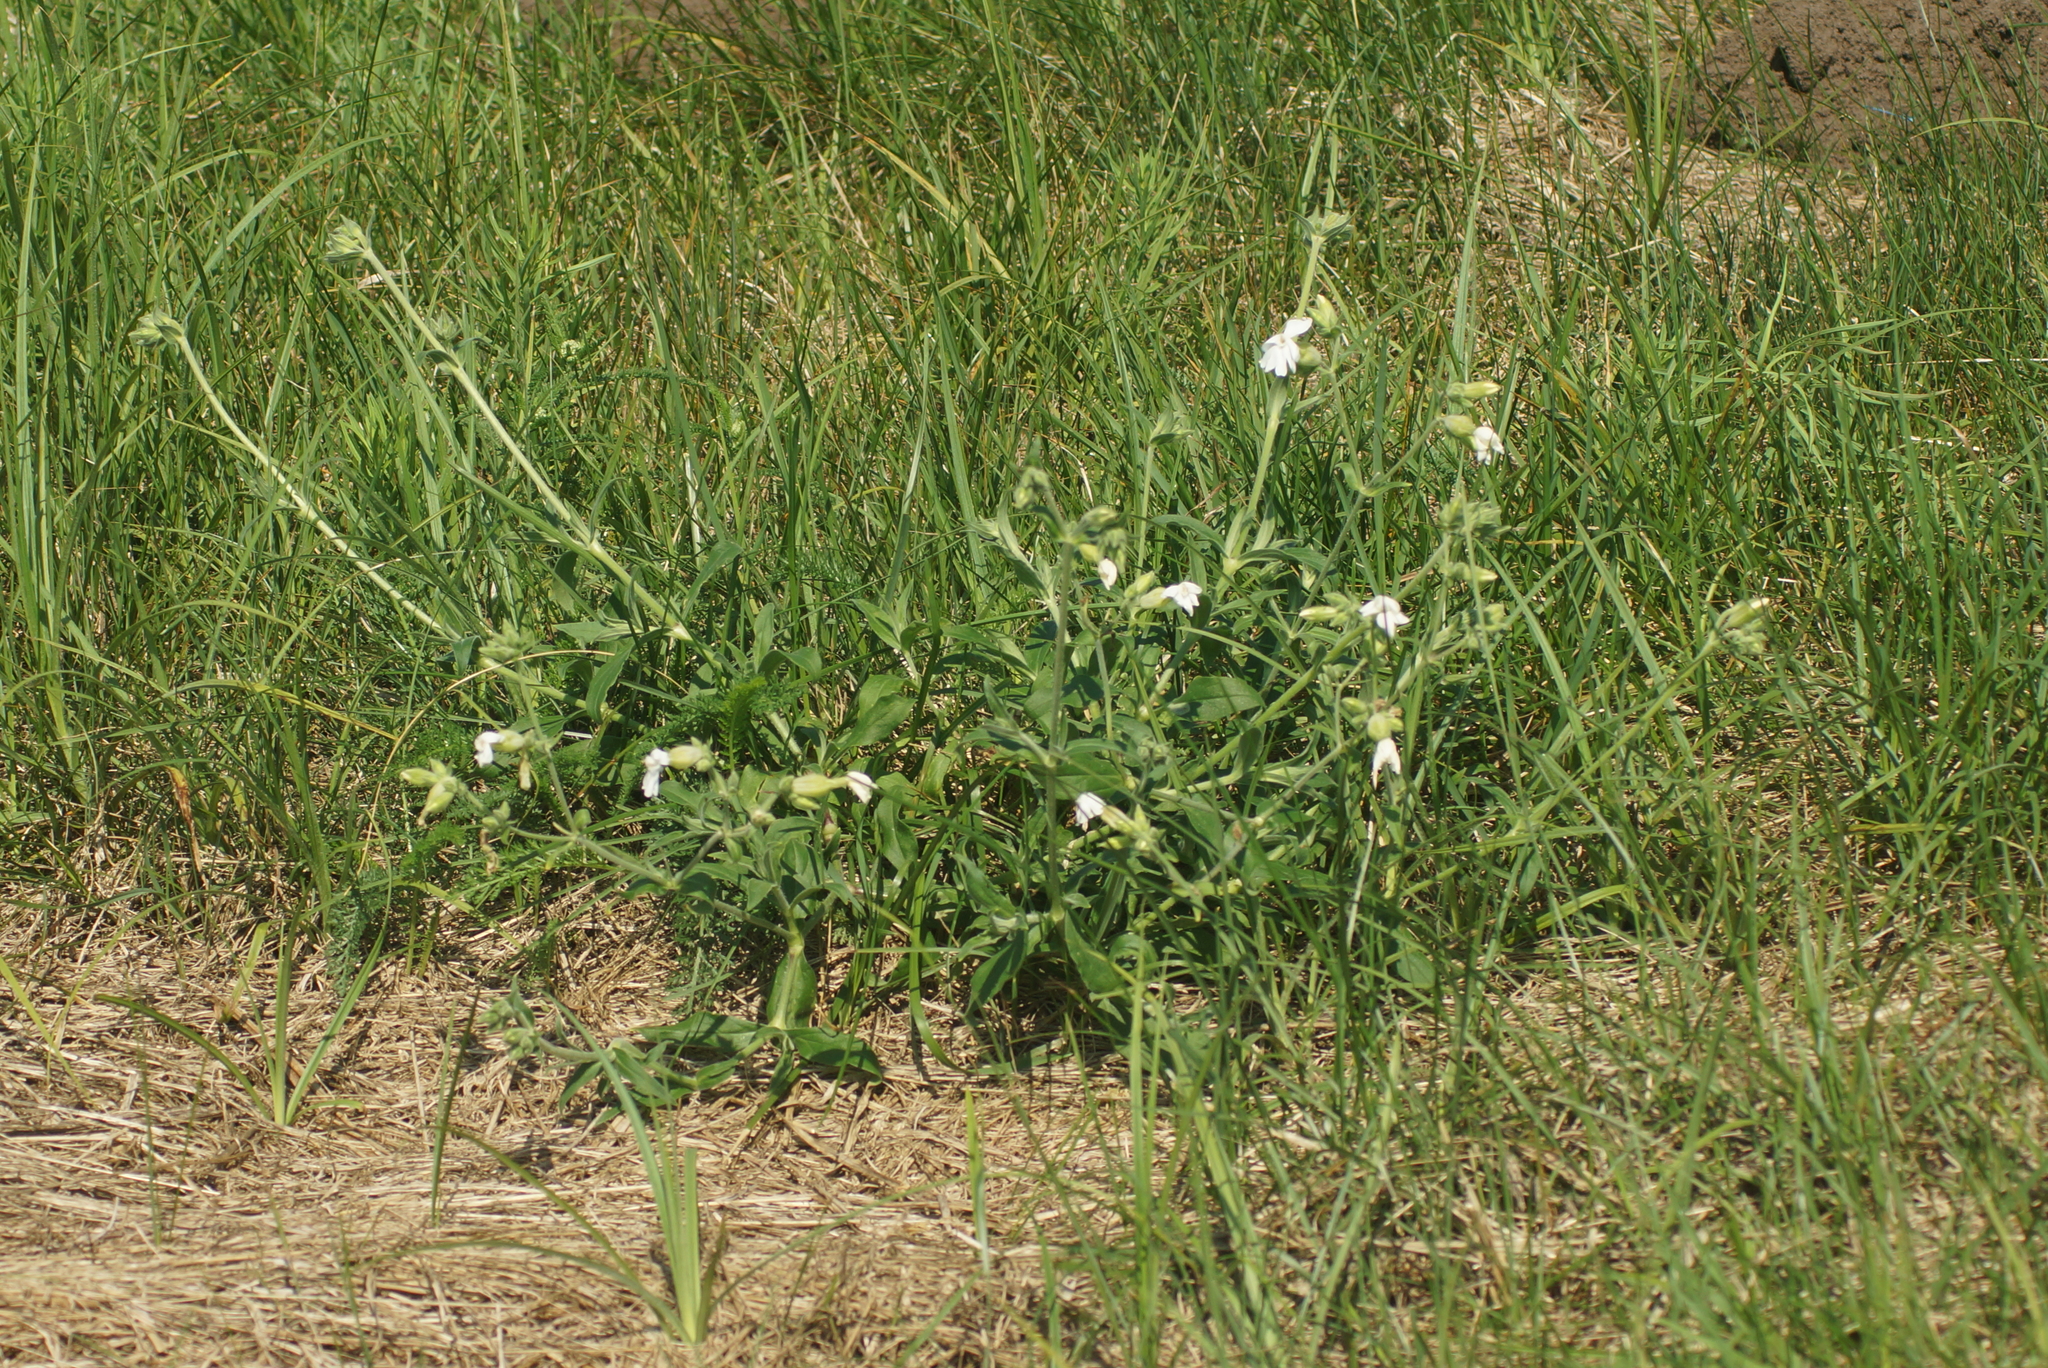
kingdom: Plantae
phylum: Tracheophyta
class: Magnoliopsida
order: Caryophyllales
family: Caryophyllaceae
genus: Silene
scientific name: Silene latifolia
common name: White campion
